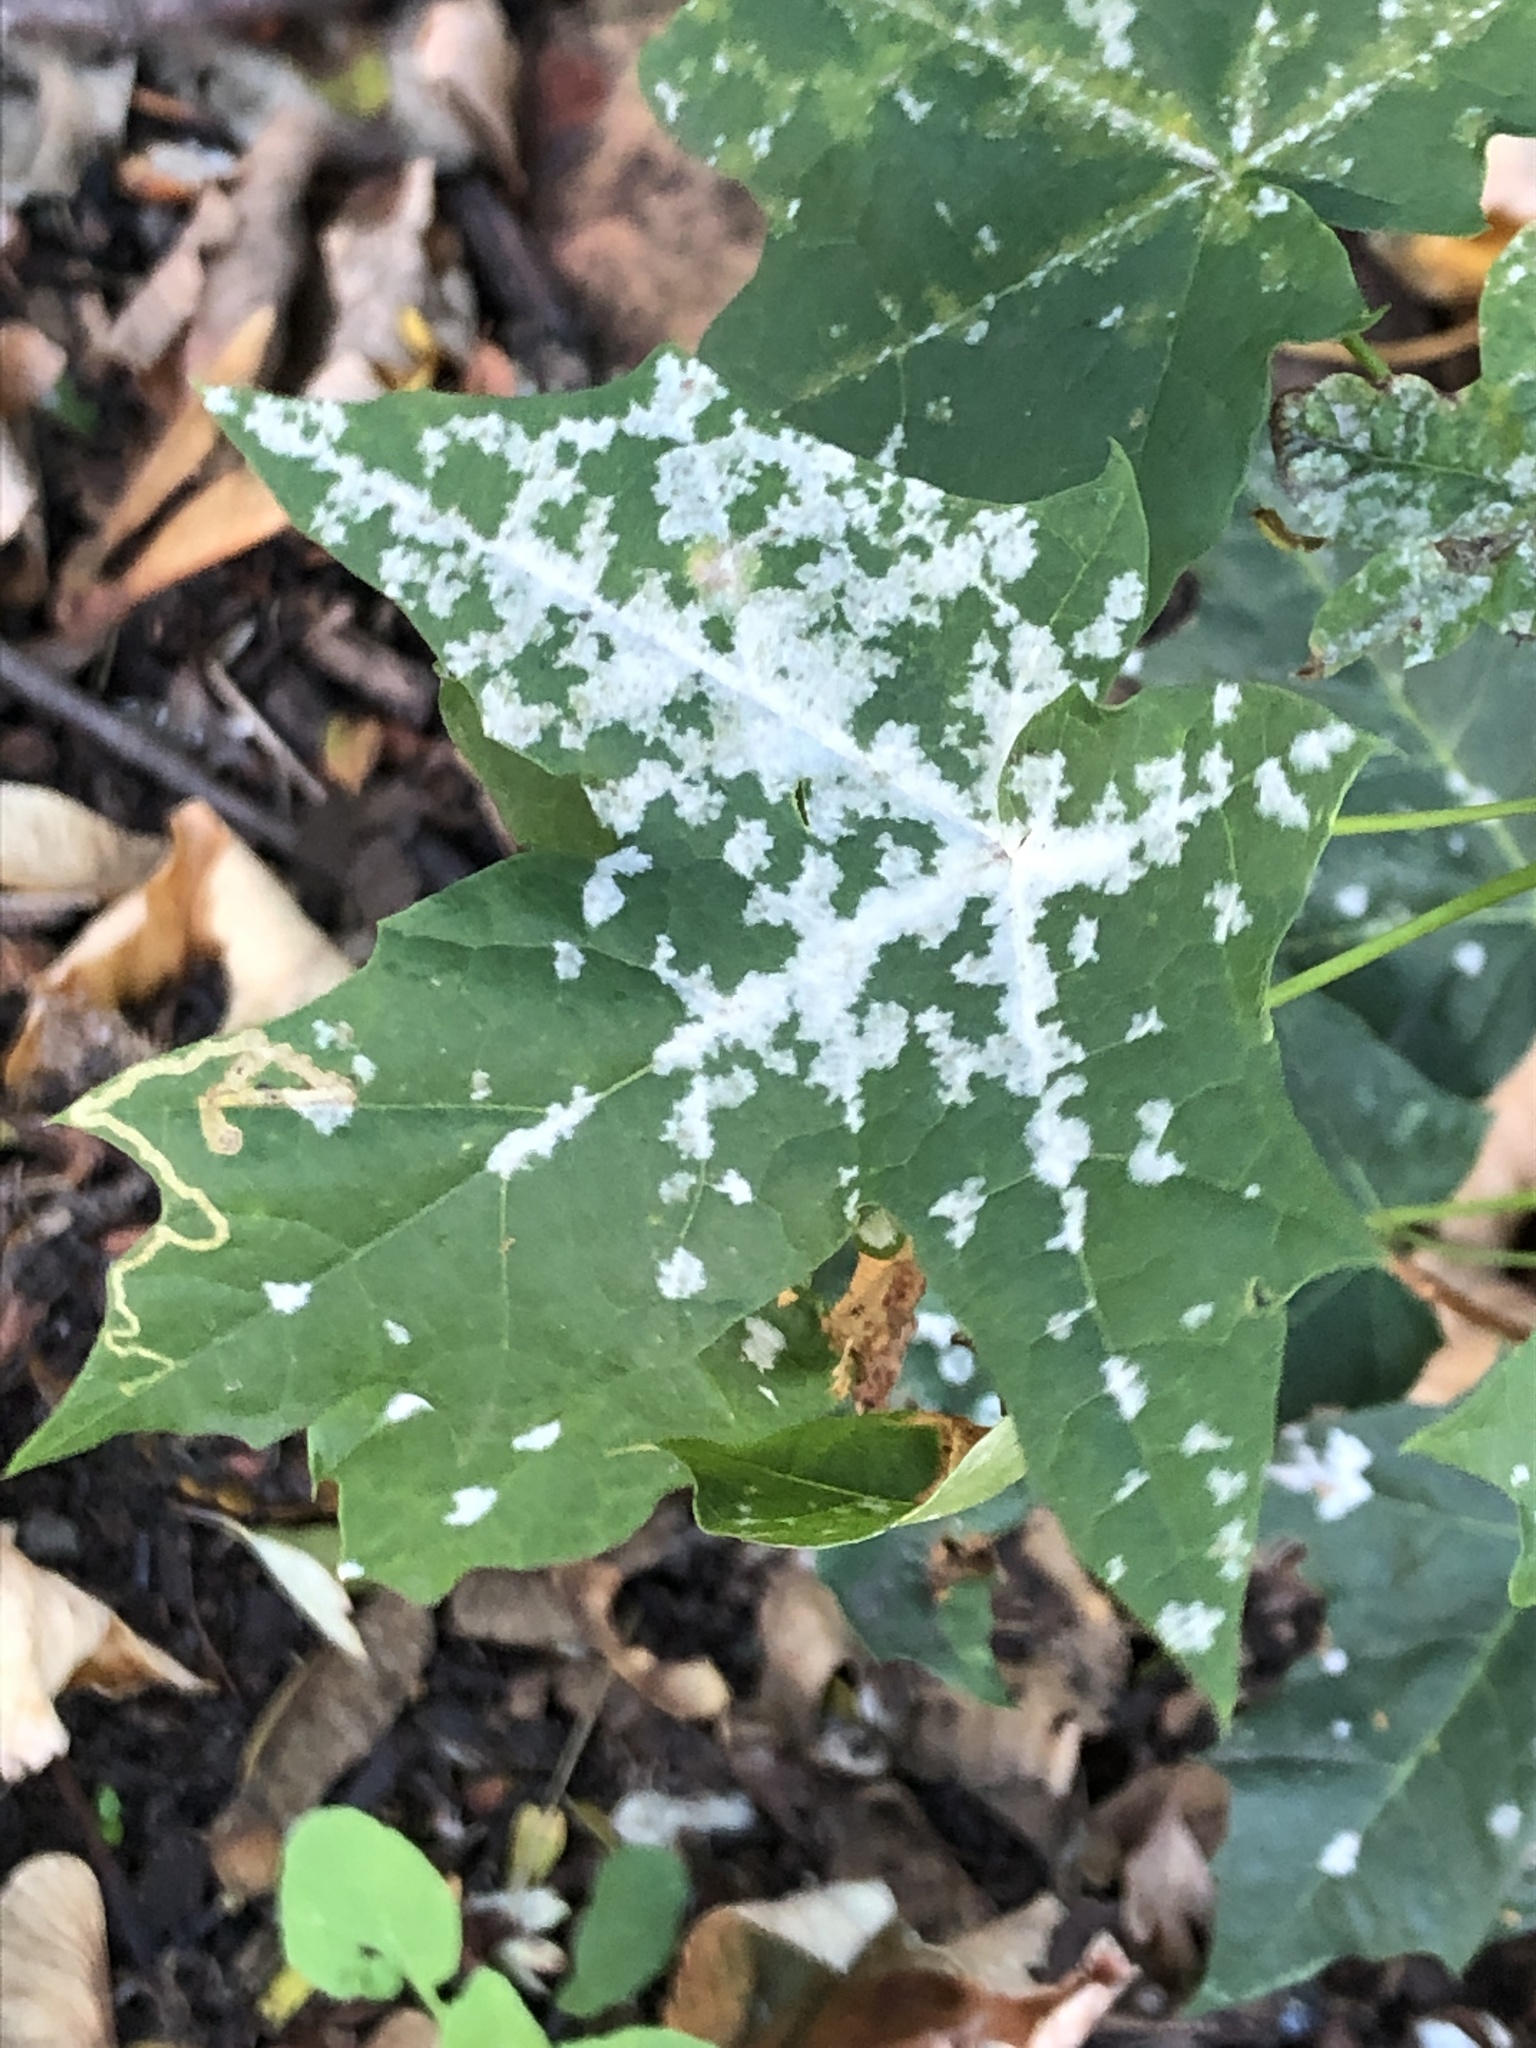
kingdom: Fungi
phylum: Ascomycota
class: Leotiomycetes
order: Helotiales
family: Erysiphaceae
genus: Sawadaea
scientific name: Sawadaea tulasnei
